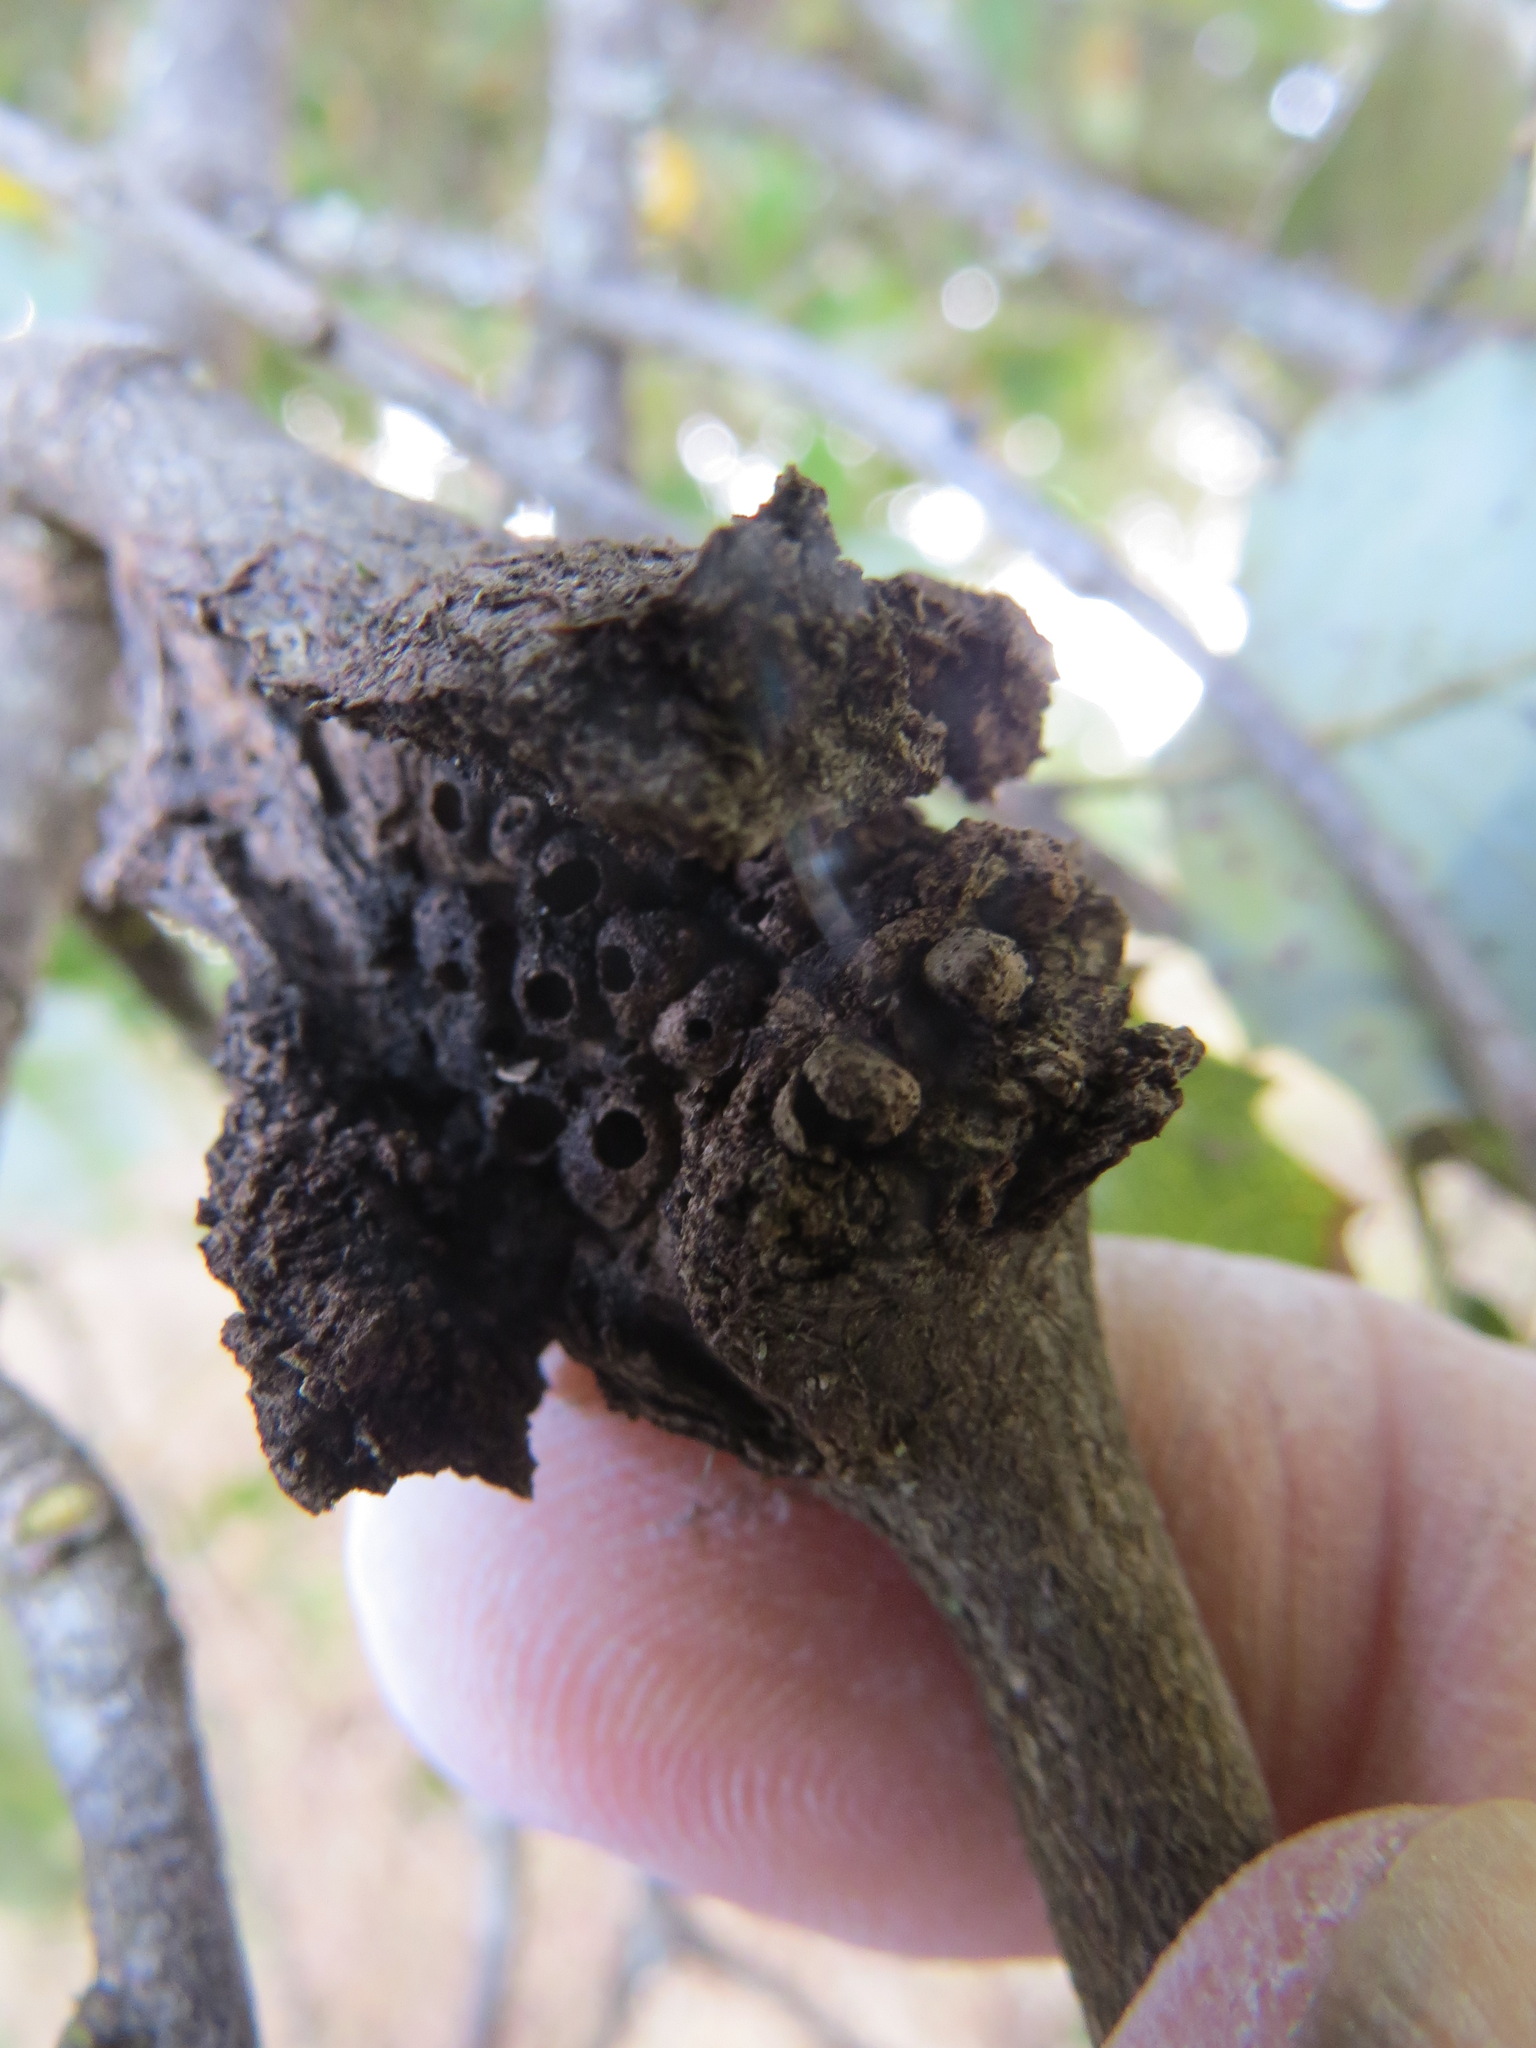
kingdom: Animalia
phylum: Arthropoda
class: Insecta
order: Hymenoptera
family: Cynipidae
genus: Dryocosmus
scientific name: Dryocosmus
